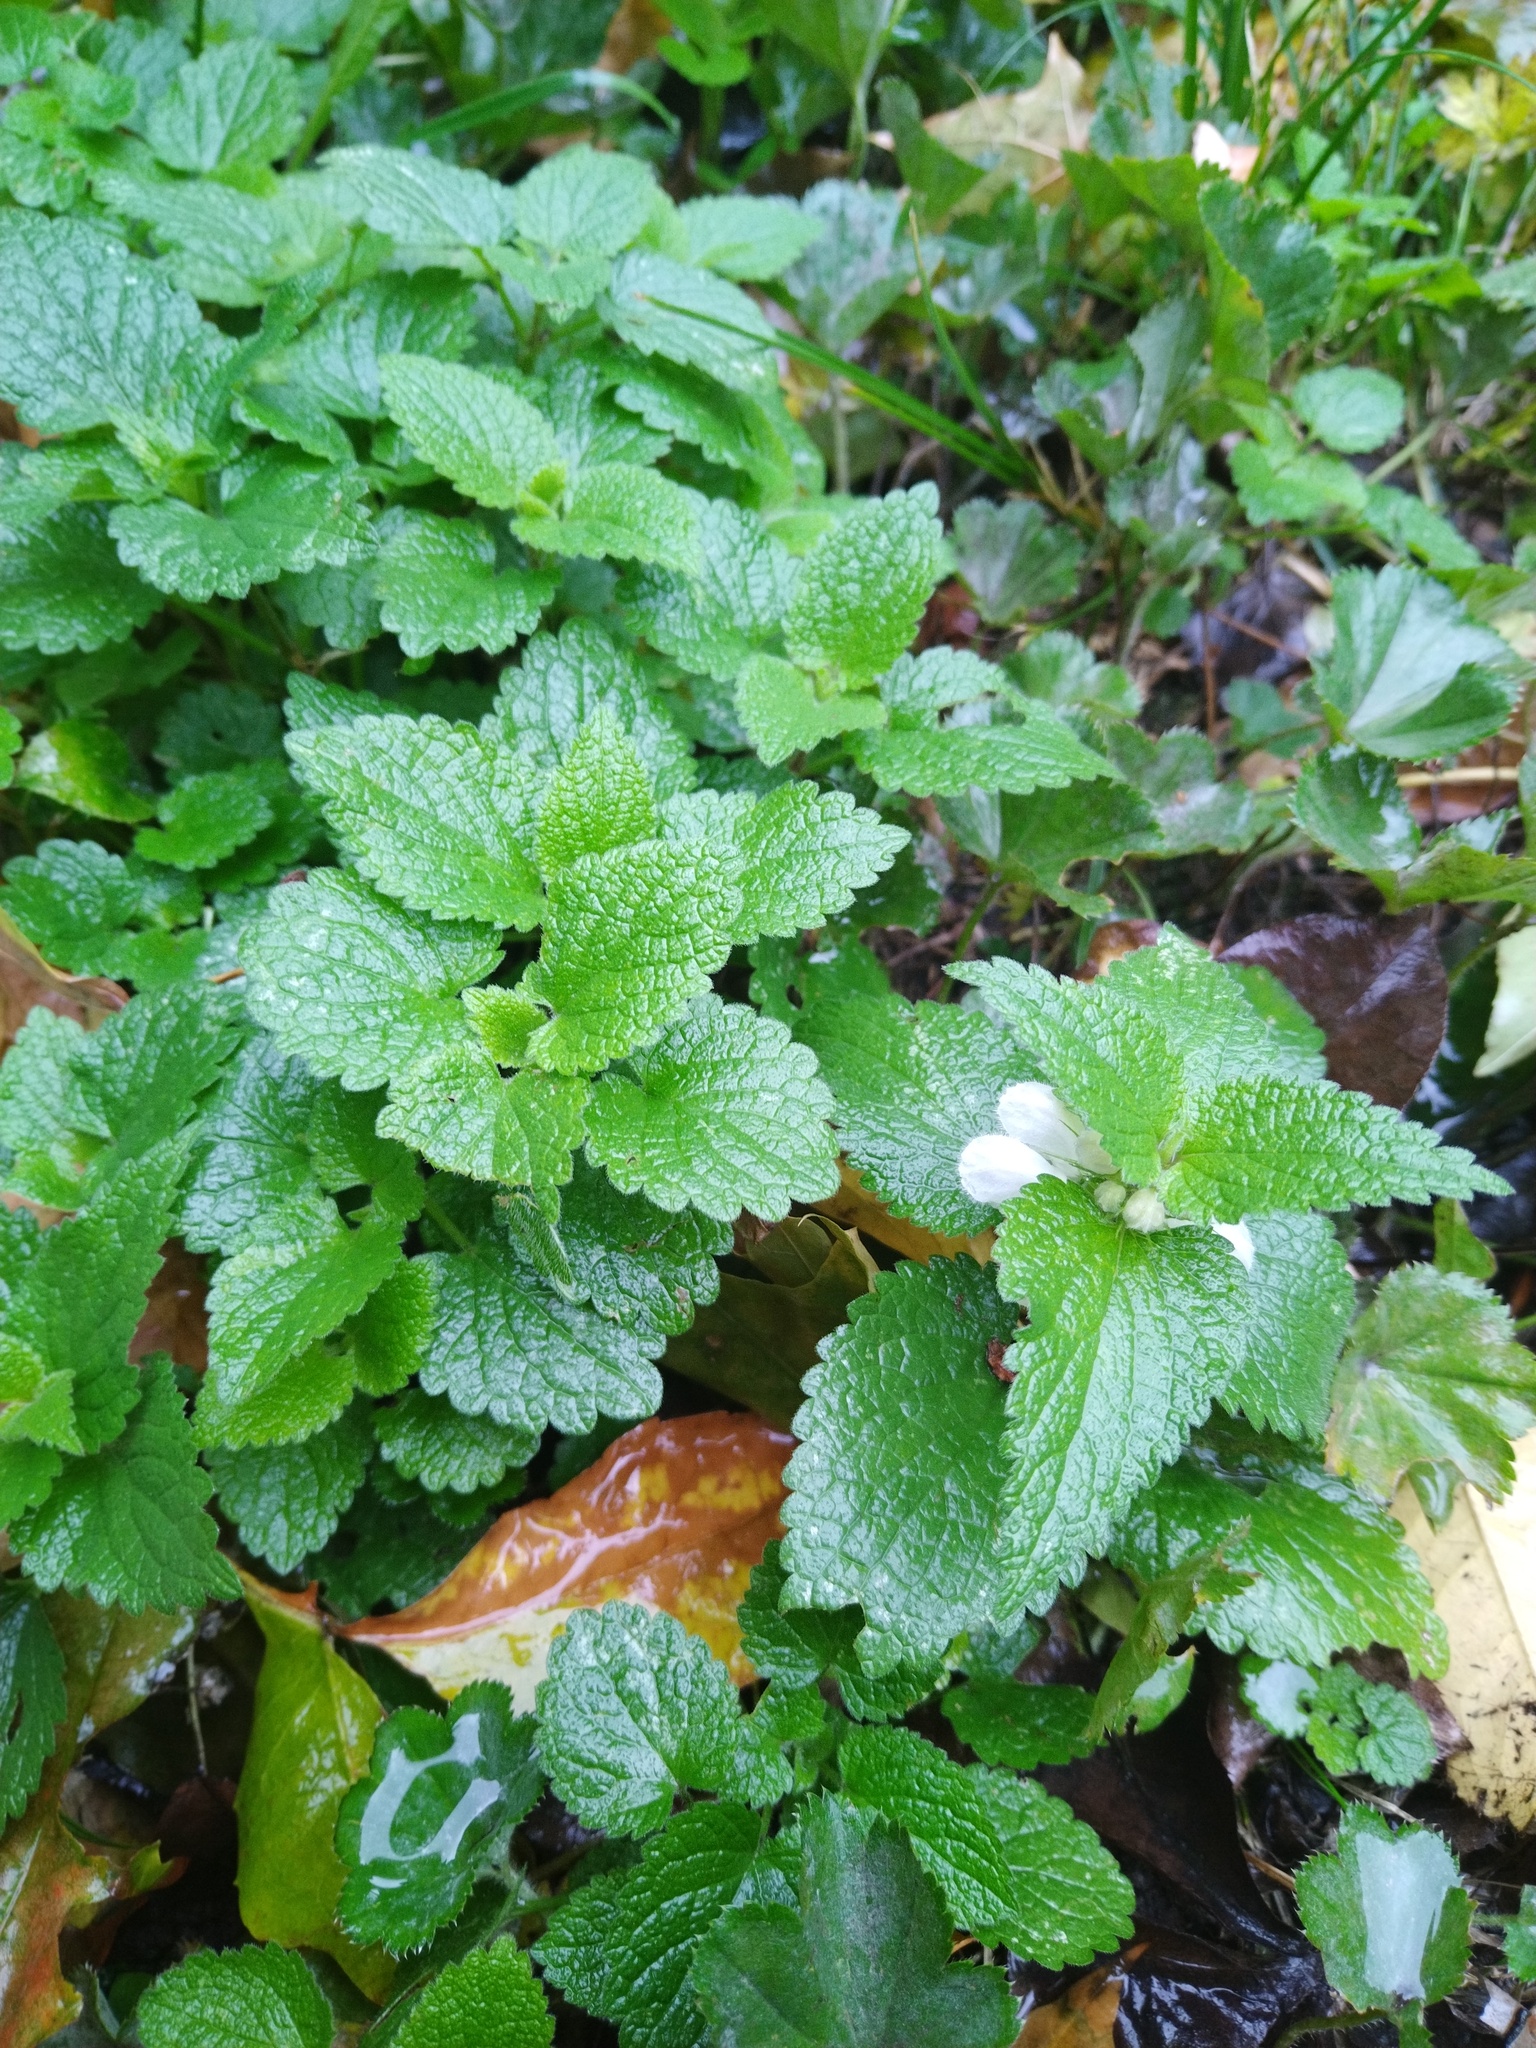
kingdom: Plantae
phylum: Tracheophyta
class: Magnoliopsida
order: Lamiales
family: Lamiaceae
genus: Lamium
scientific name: Lamium album
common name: White dead-nettle
